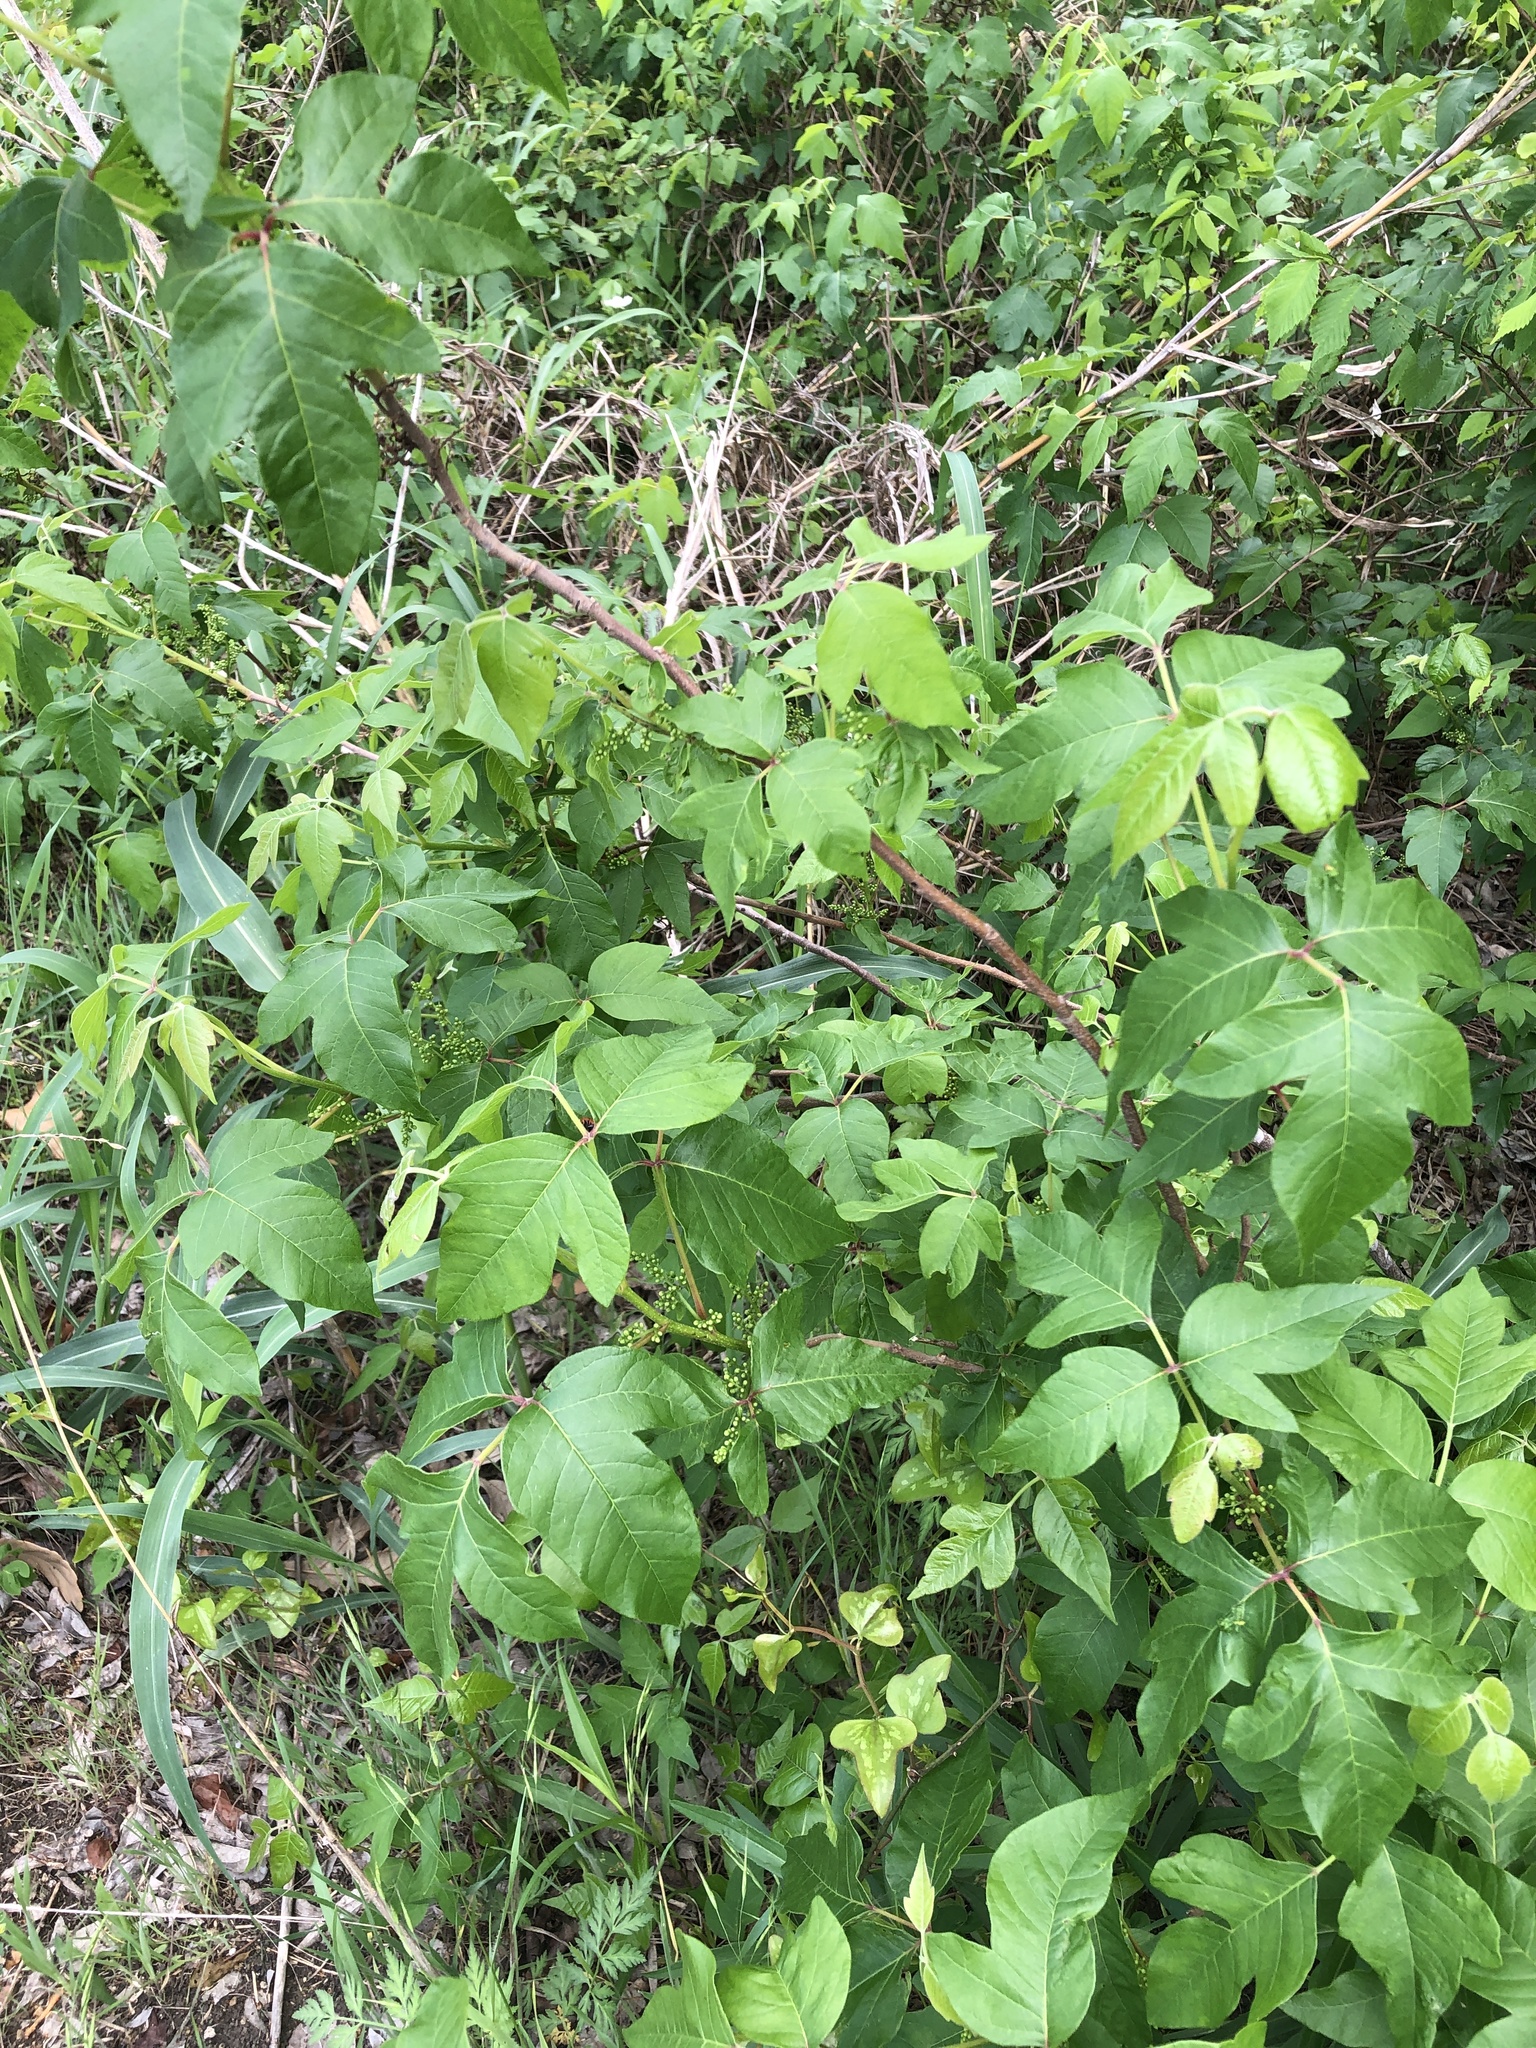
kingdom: Plantae
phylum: Tracheophyta
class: Magnoliopsida
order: Sapindales
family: Anacardiaceae
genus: Toxicodendron
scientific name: Toxicodendron radicans
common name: Poison ivy
